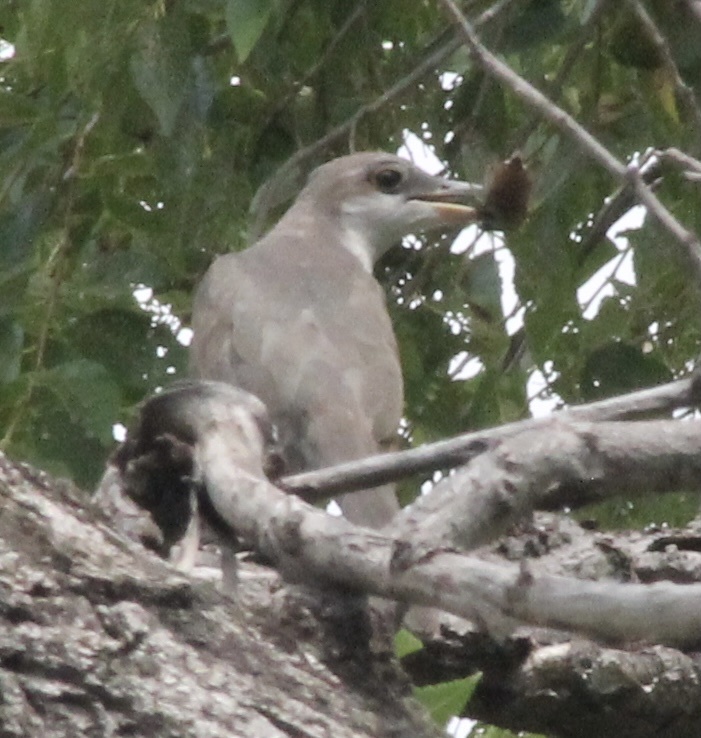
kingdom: Animalia
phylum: Chordata
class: Aves
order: Cuculiformes
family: Cuculidae
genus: Coccyzus
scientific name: Coccyzus americanus
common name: Yellow-billed cuckoo
